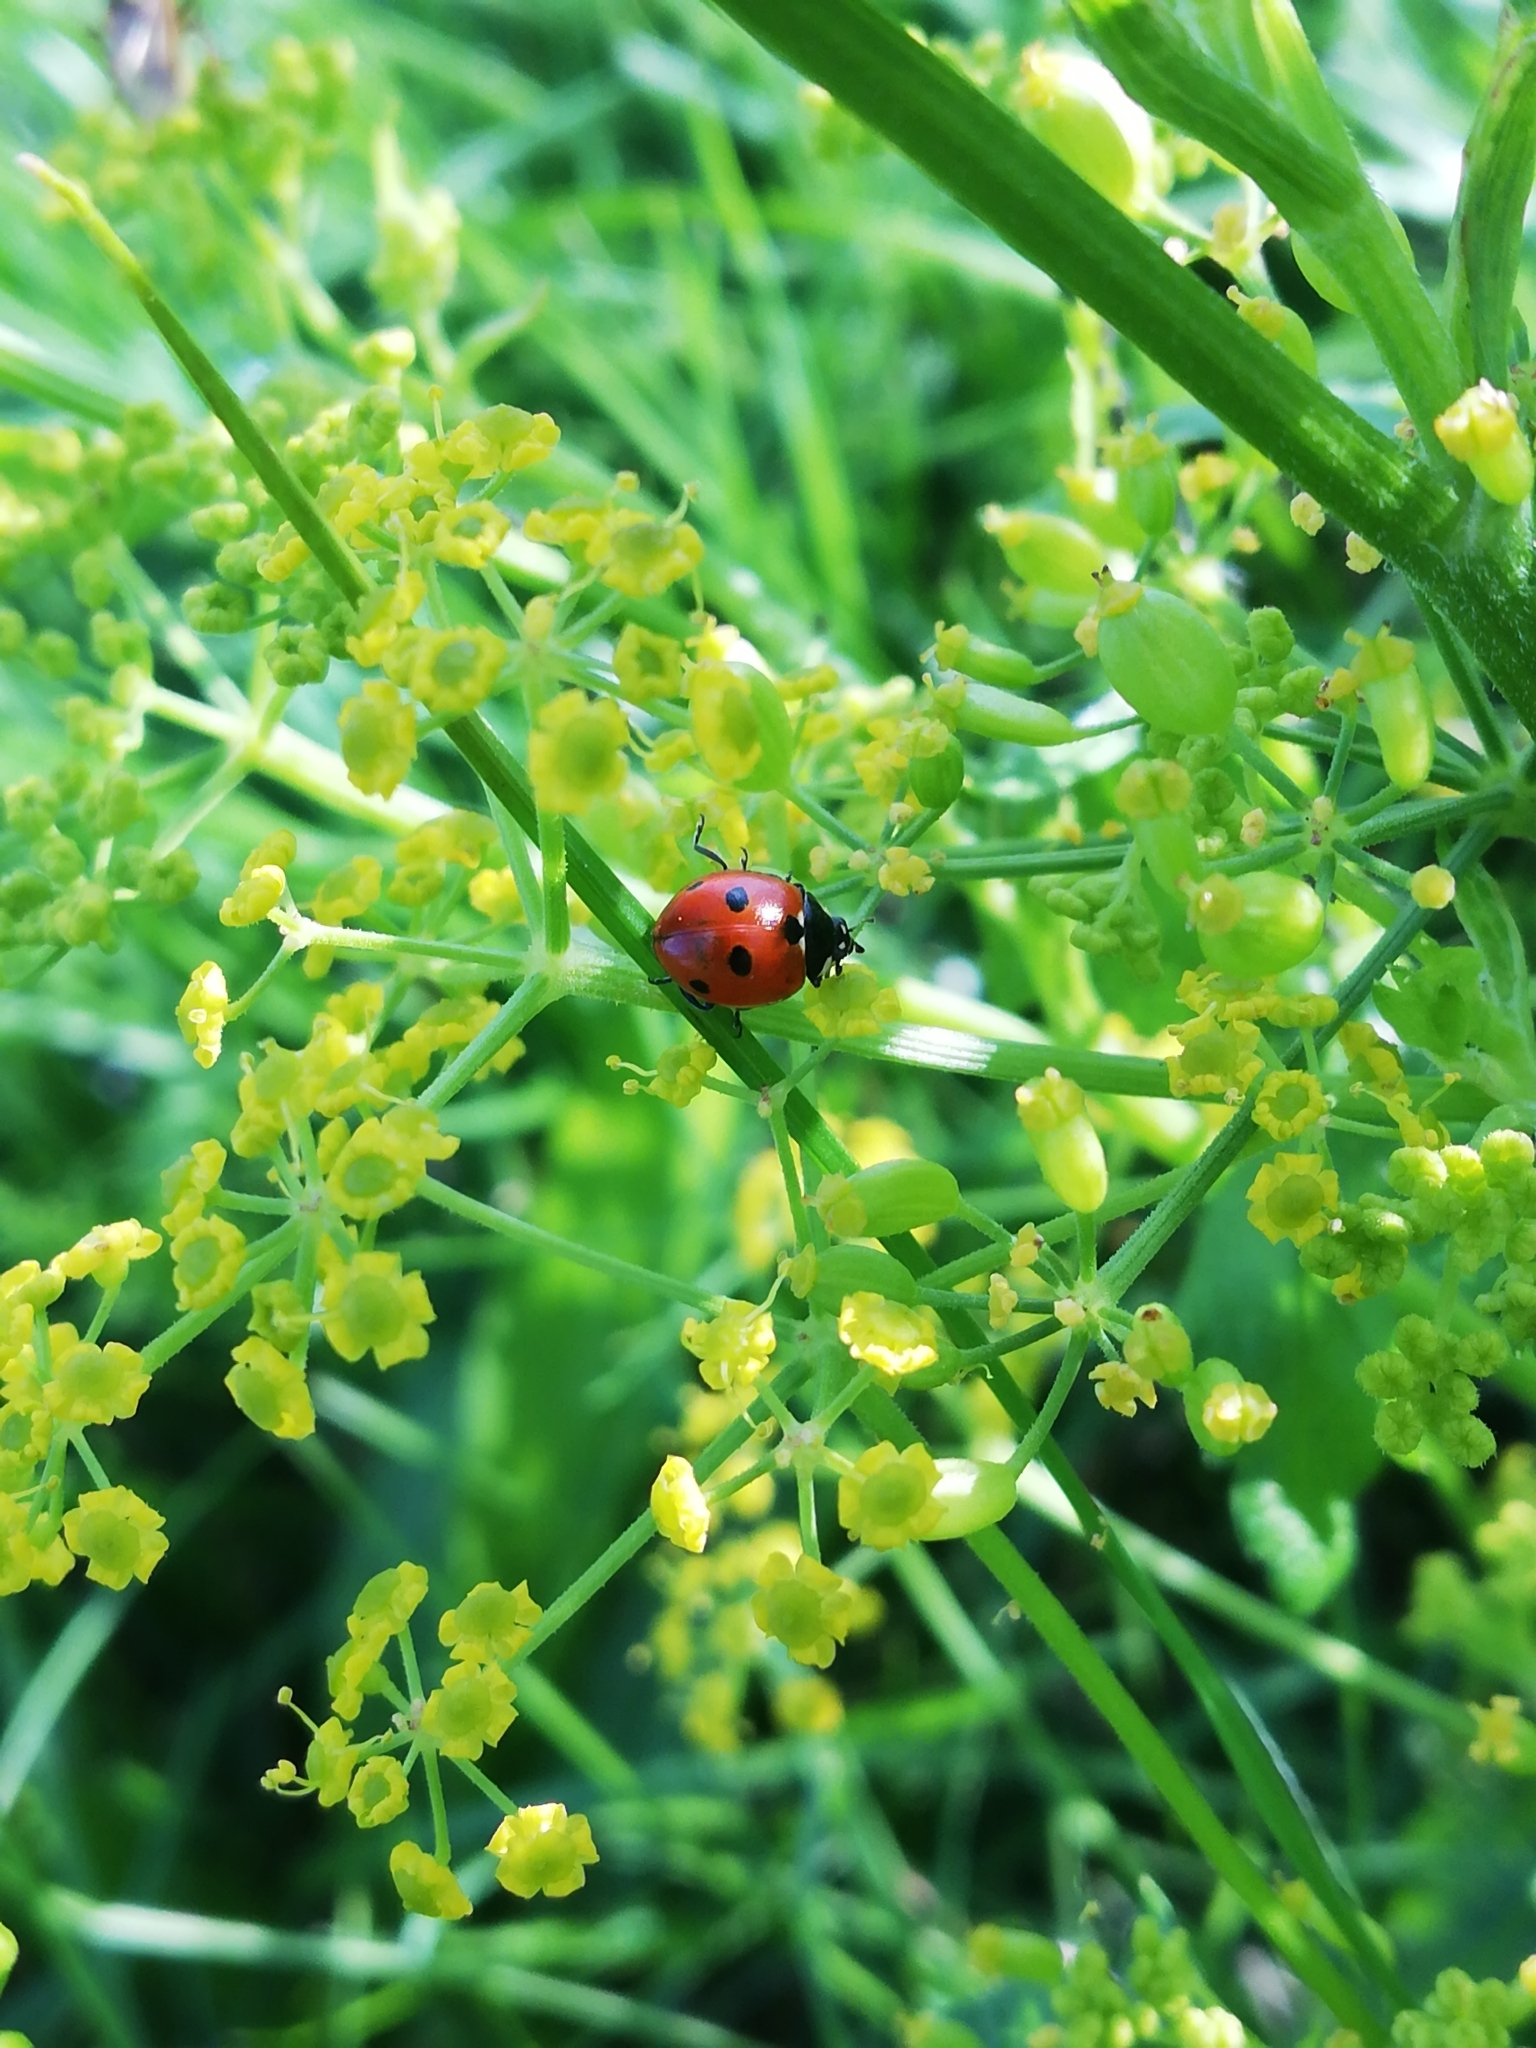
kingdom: Animalia
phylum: Arthropoda
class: Insecta
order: Coleoptera
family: Coccinellidae
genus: Coccinella
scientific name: Coccinella quinquepunctata
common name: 5-spot ladybird
